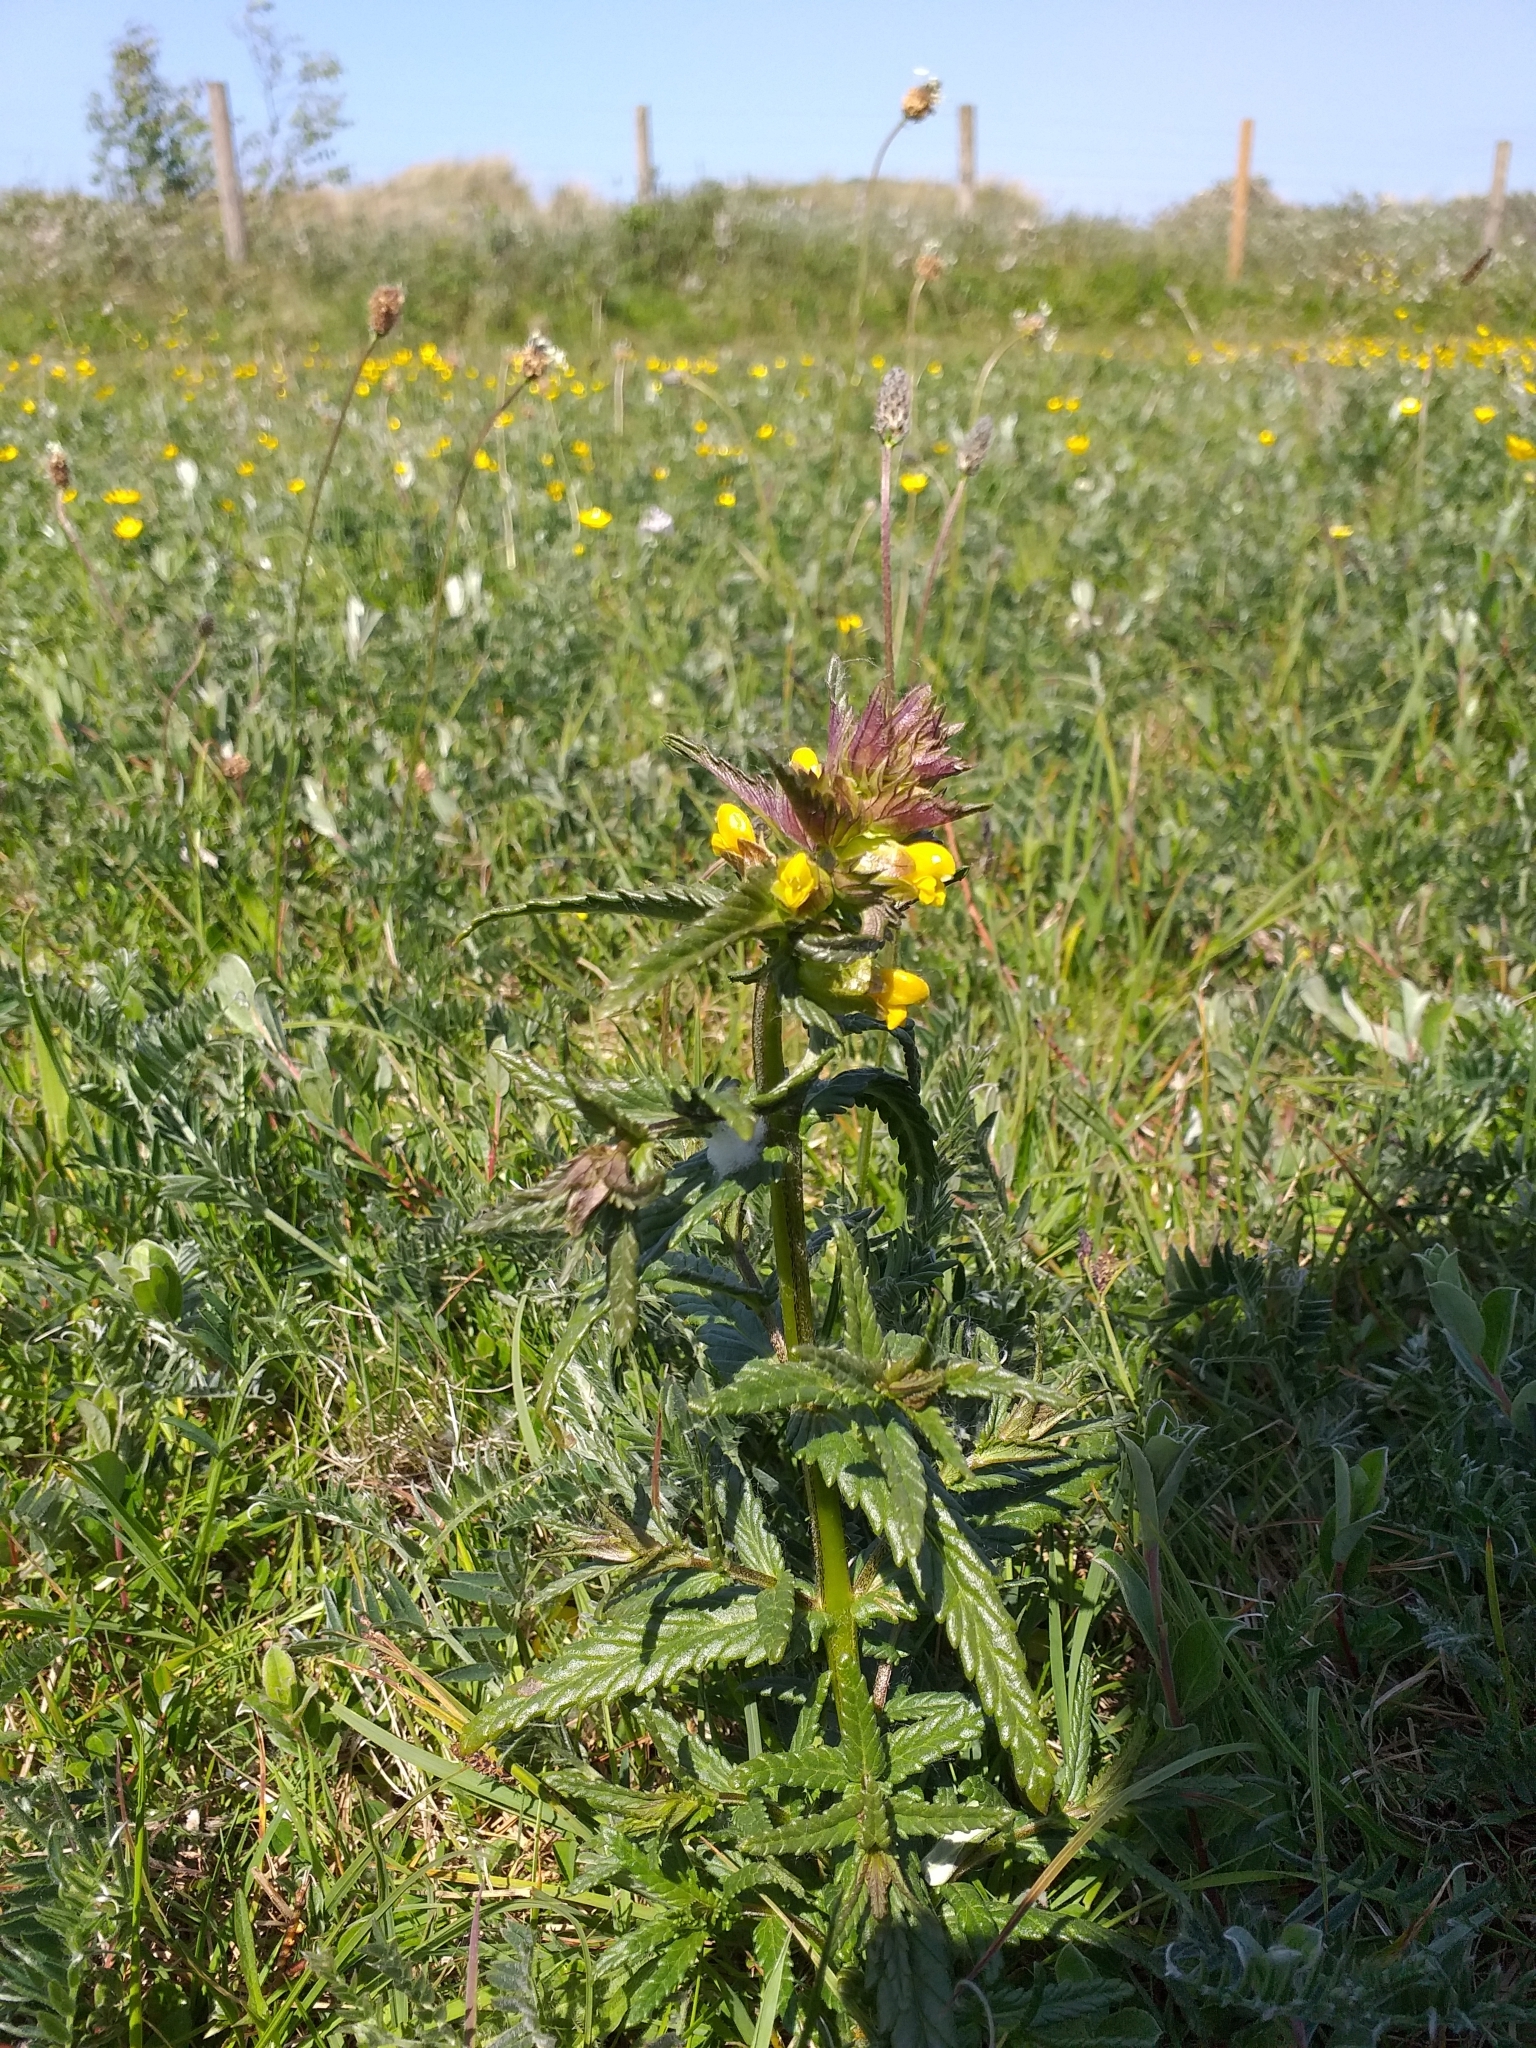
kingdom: Plantae
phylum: Tracheophyta
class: Magnoliopsida
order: Lamiales
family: Orobanchaceae
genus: Rhinanthus
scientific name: Rhinanthus minor
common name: Yellow-rattle
